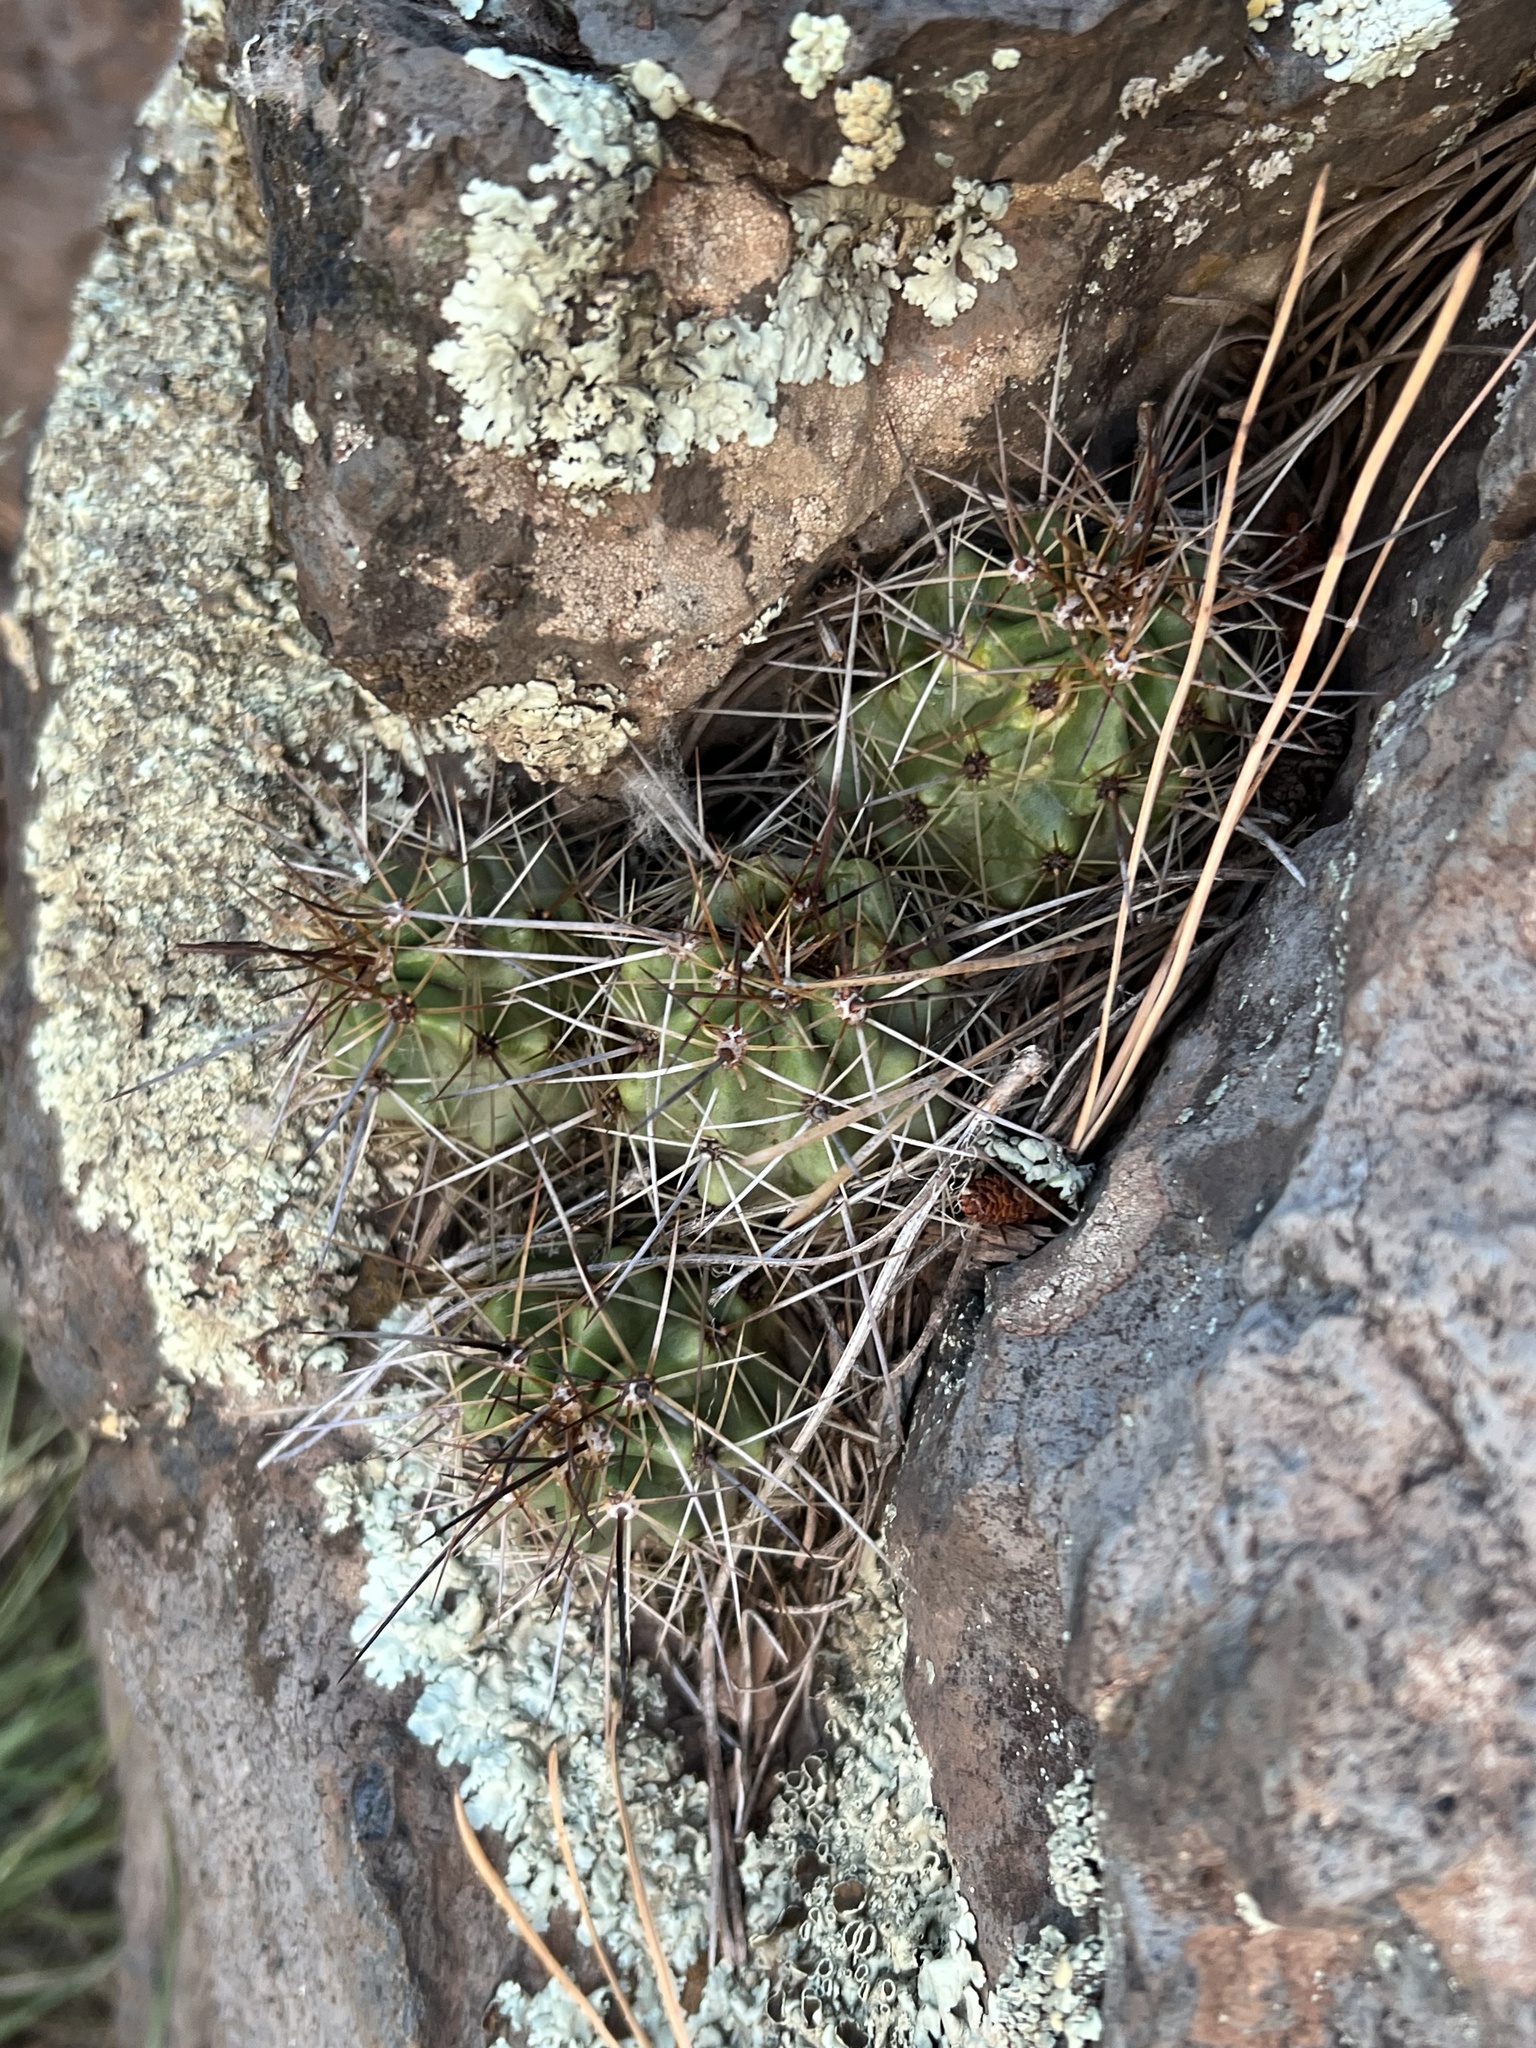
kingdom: Plantae
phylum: Tracheophyta
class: Magnoliopsida
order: Caryophyllales
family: Cactaceae
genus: Echinocereus
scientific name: Echinocereus bakeri
